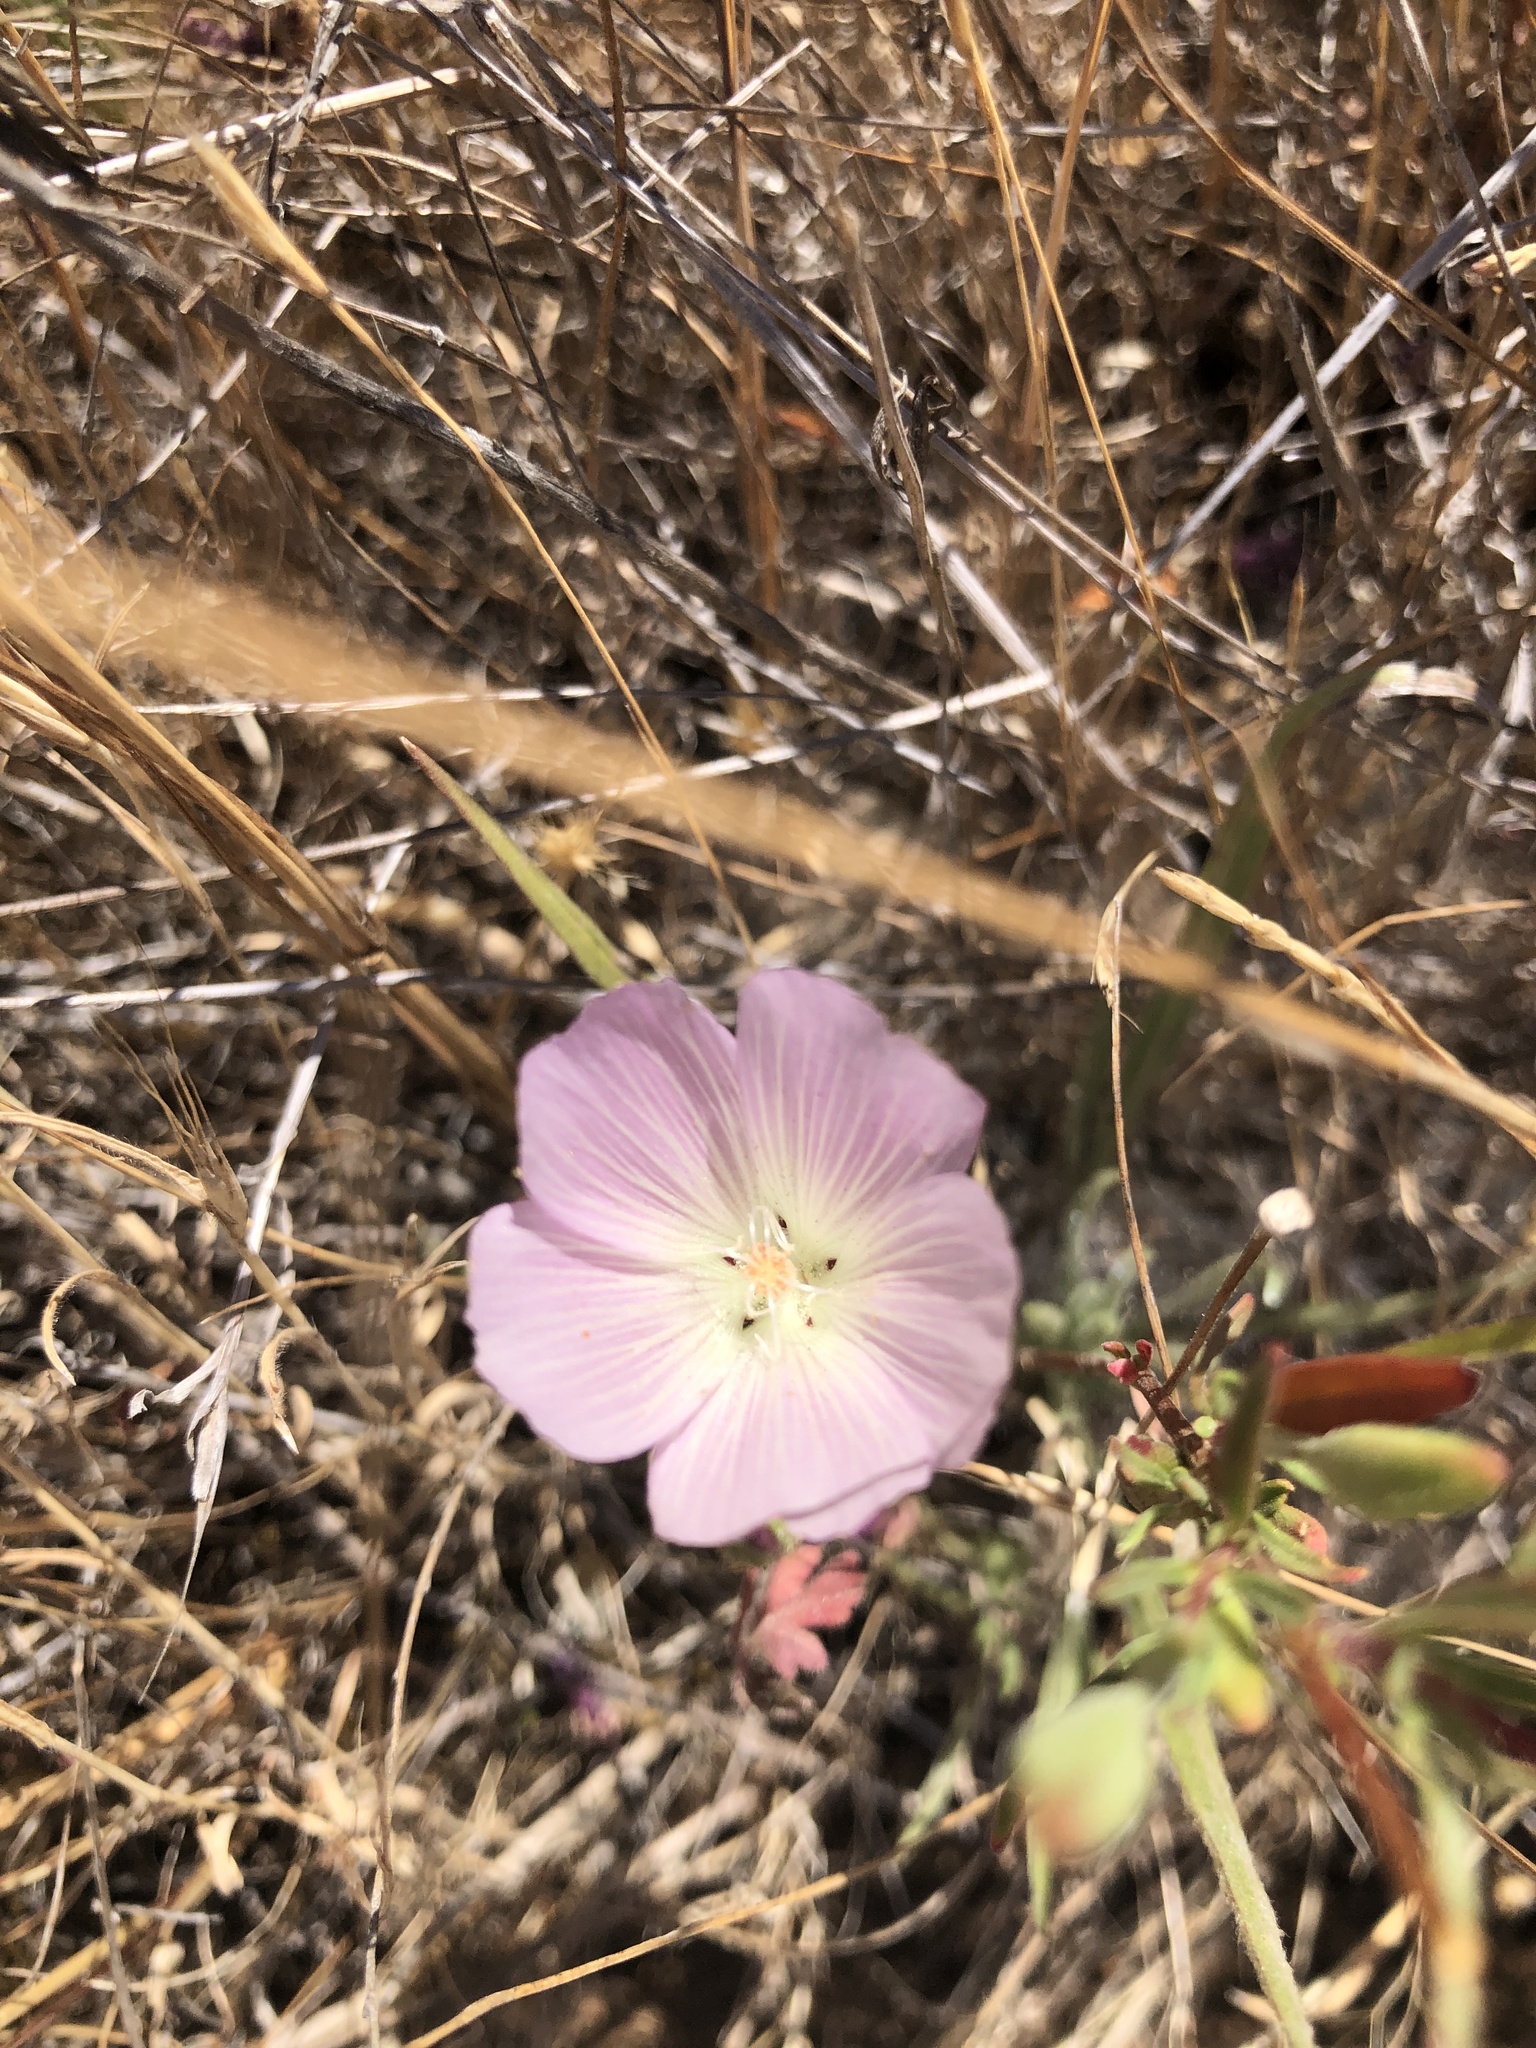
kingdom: Plantae
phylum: Tracheophyta
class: Magnoliopsida
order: Malvales
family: Malvaceae
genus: Sidalcea
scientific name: Sidalcea diploscypha
